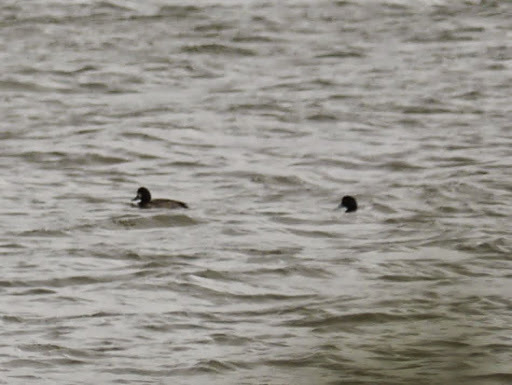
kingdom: Animalia
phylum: Chordata
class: Aves
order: Anseriformes
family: Anatidae
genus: Aythya
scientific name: Aythya marila
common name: Greater scaup
